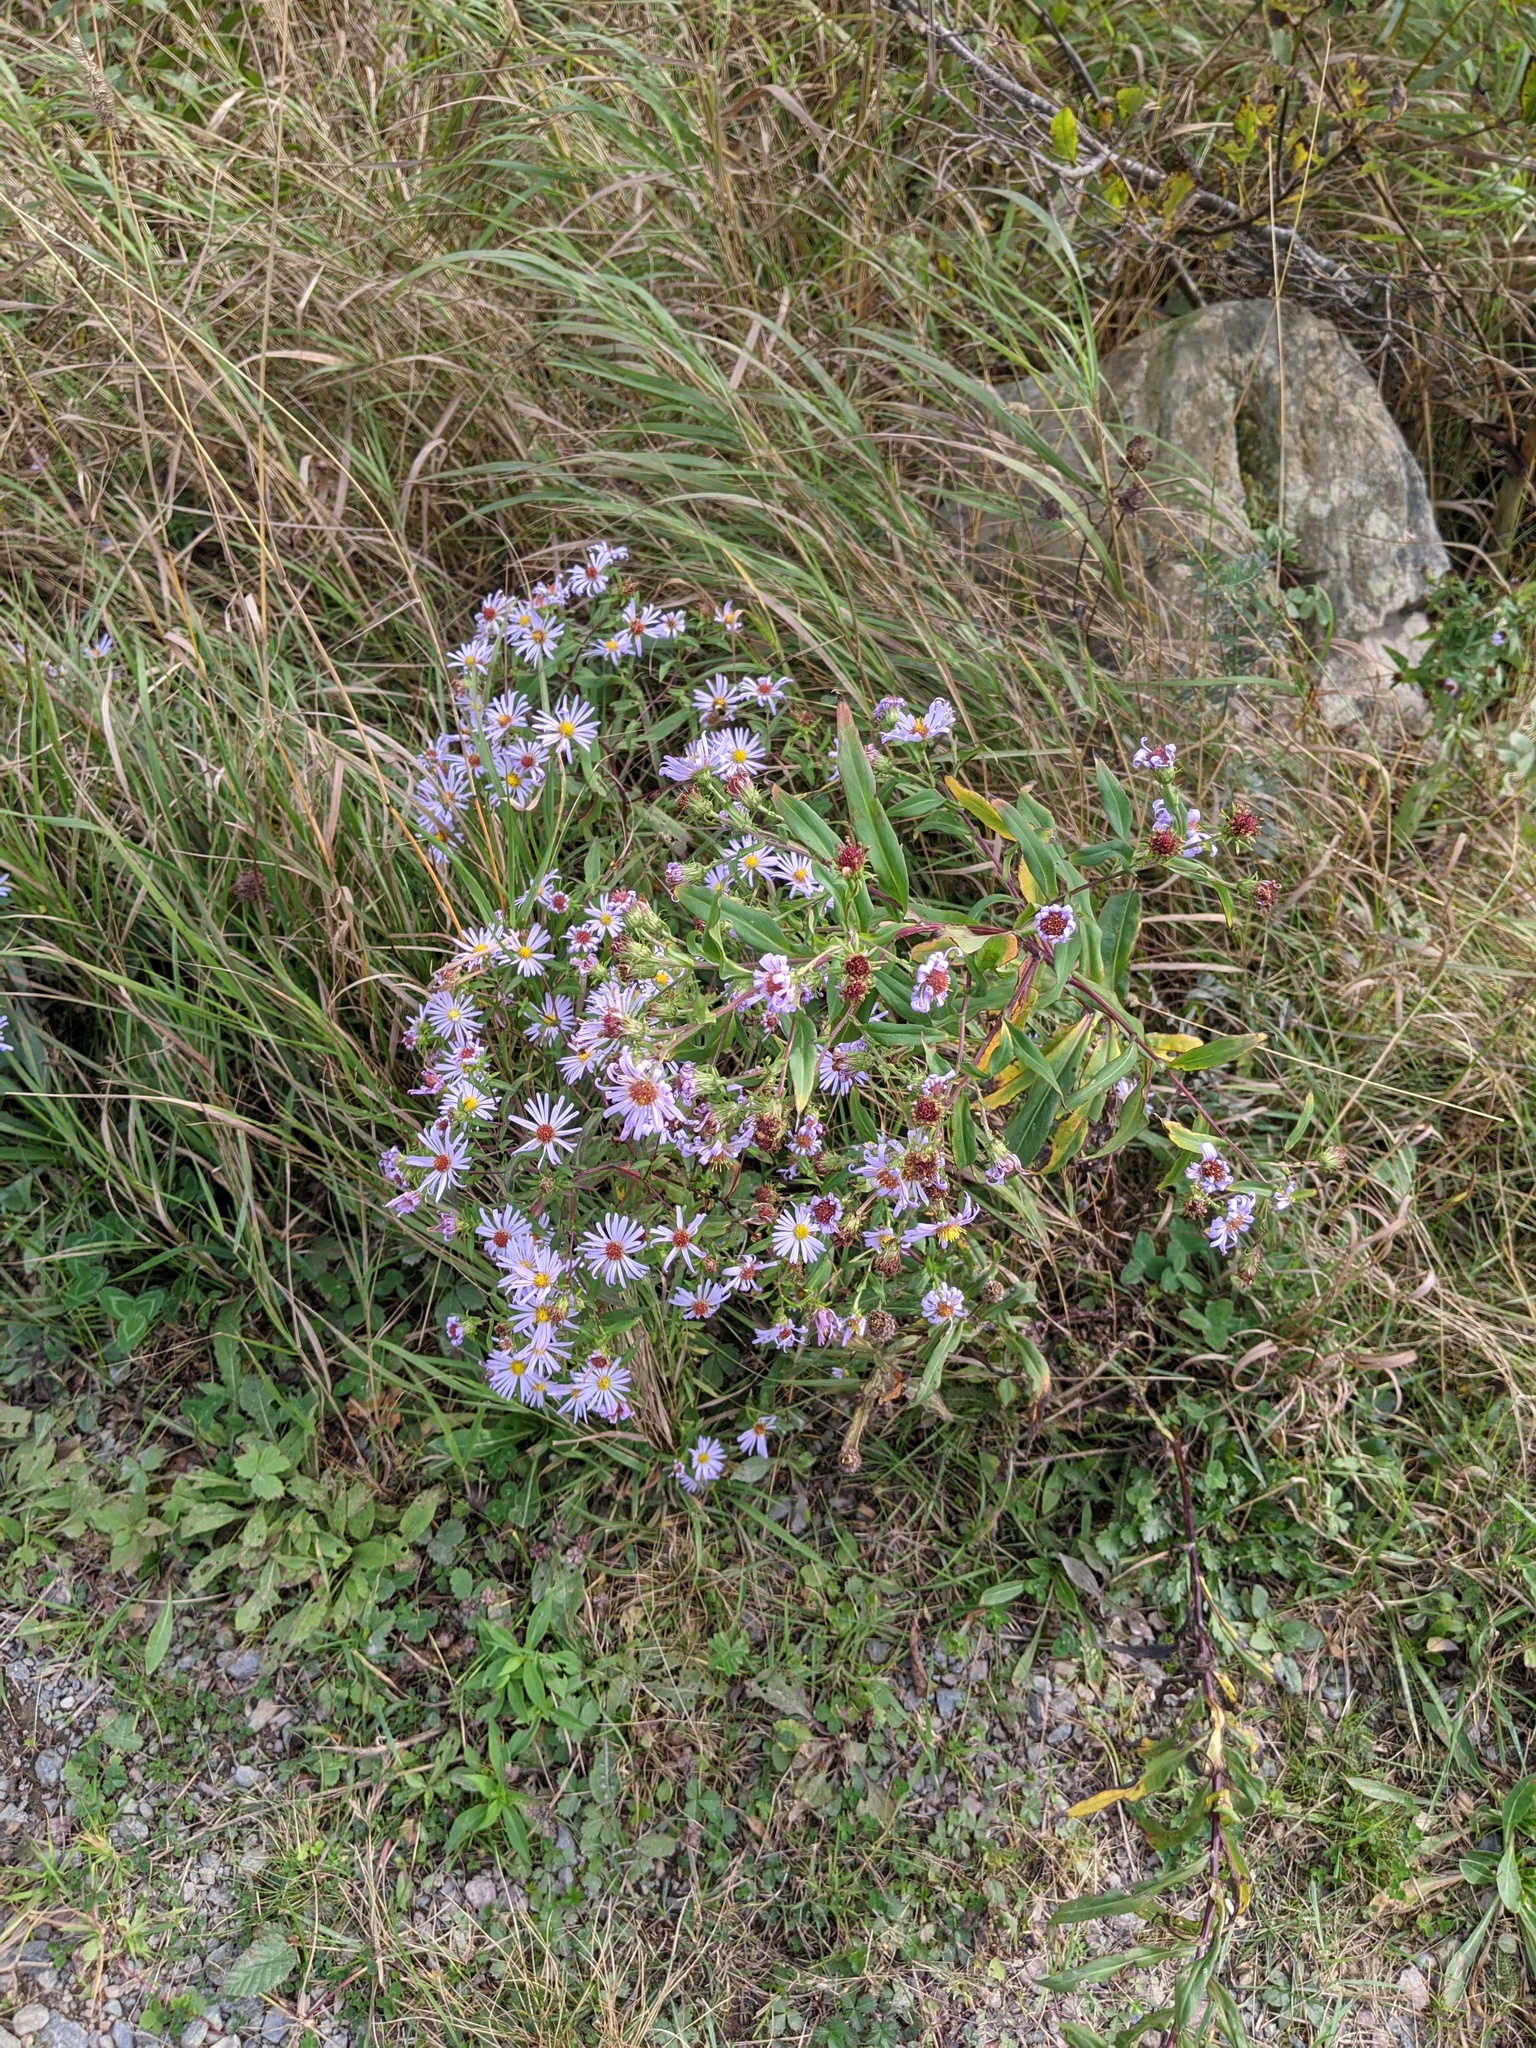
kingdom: Plantae
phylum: Tracheophyta
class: Magnoliopsida
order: Asterales
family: Asteraceae
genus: Symphyotrichum
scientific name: Symphyotrichum novi-belgii
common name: Michaelmas daisy
